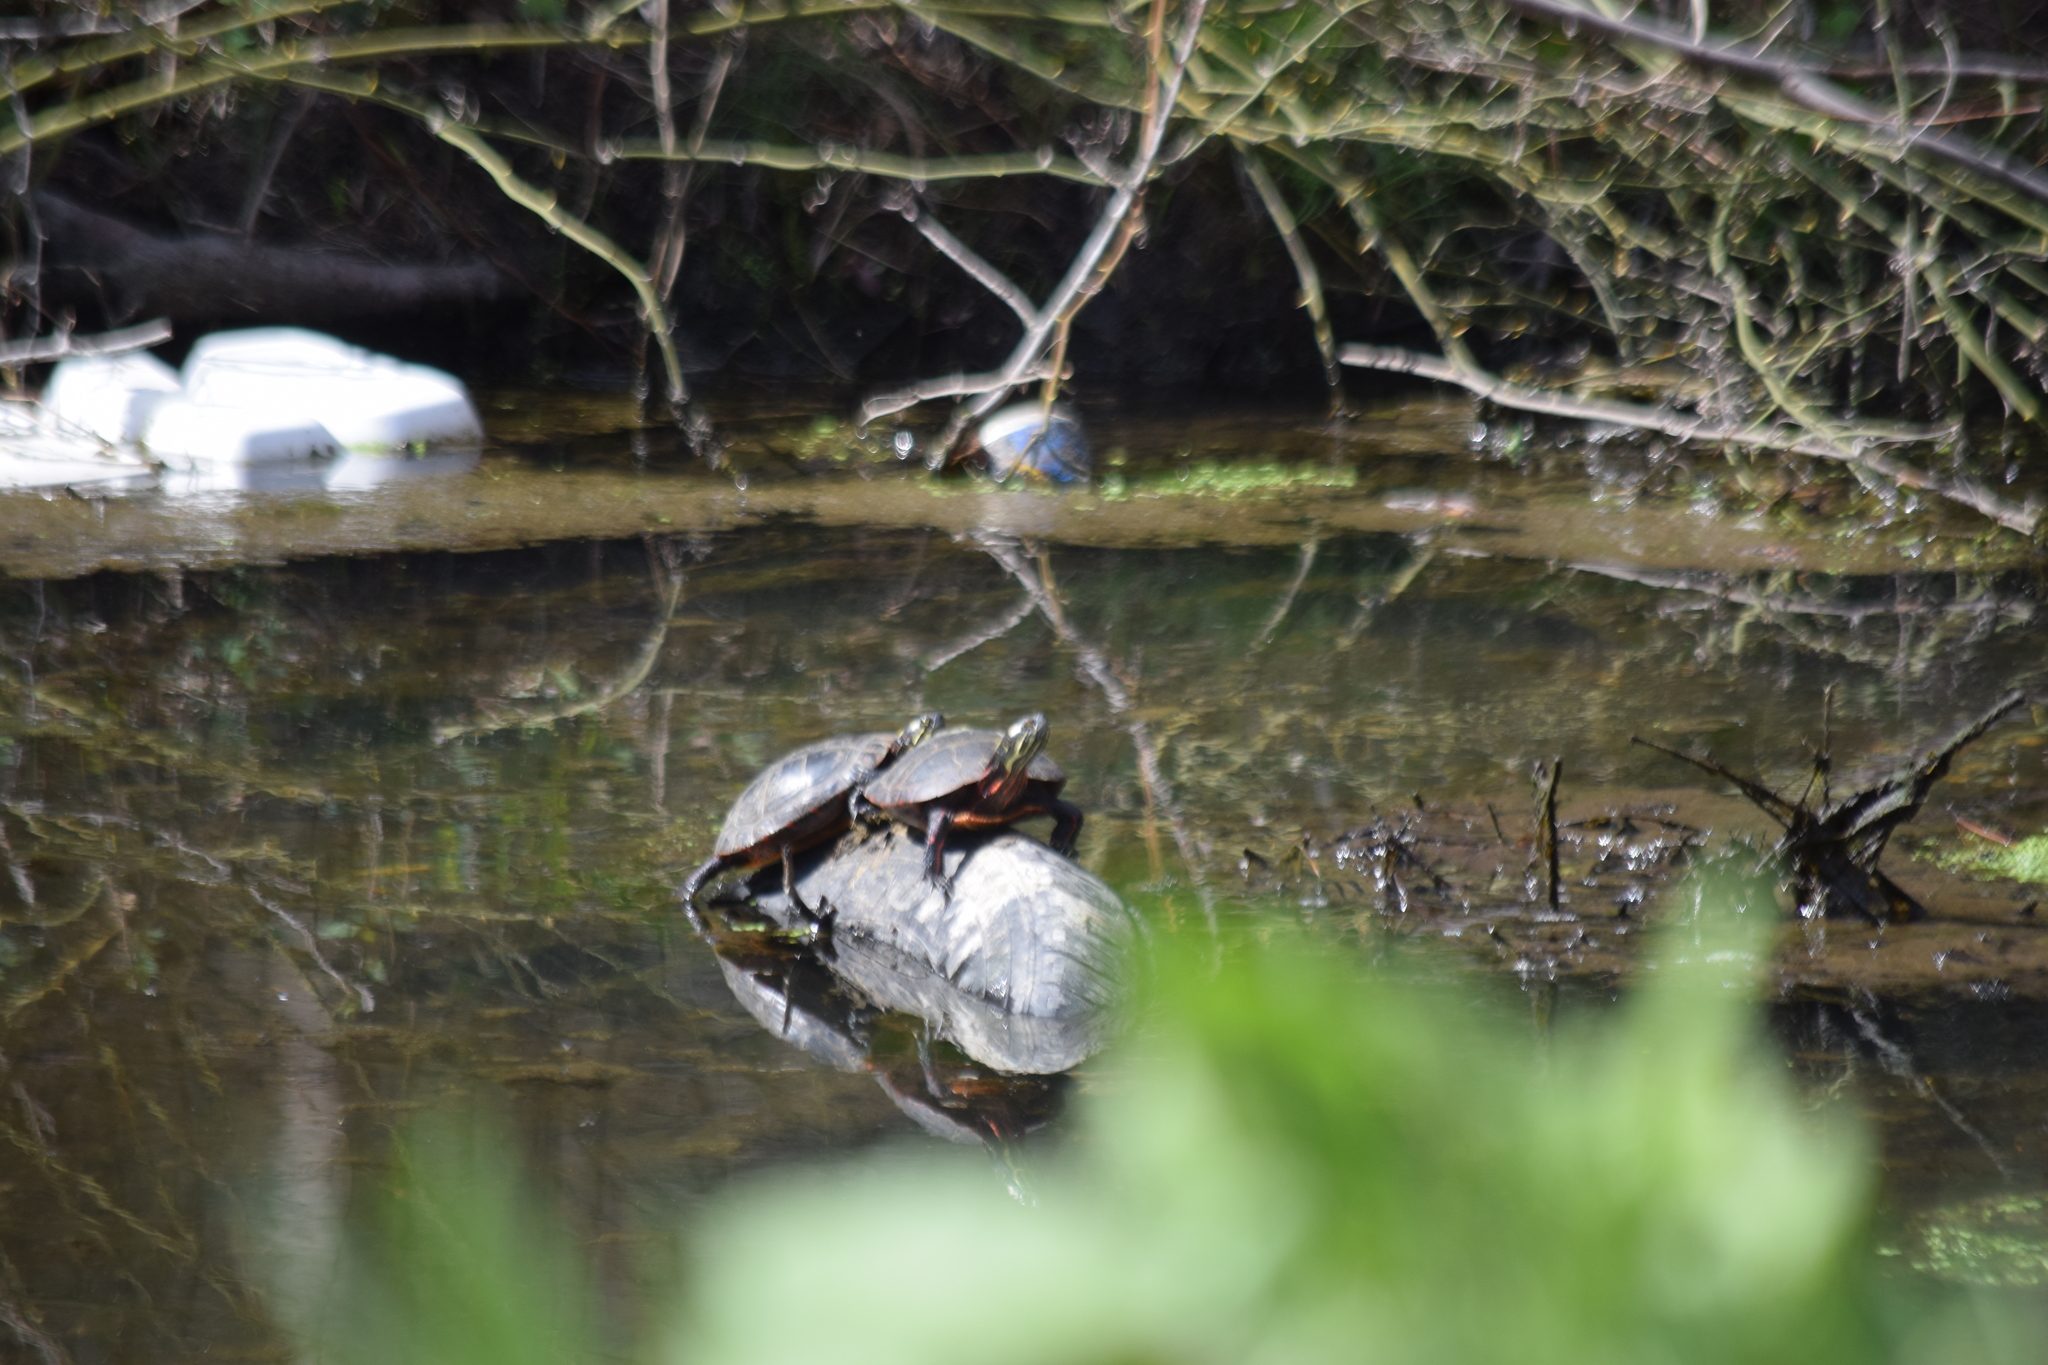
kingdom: Animalia
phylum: Chordata
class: Testudines
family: Emydidae
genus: Chrysemys
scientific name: Chrysemys picta
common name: Painted turtle
